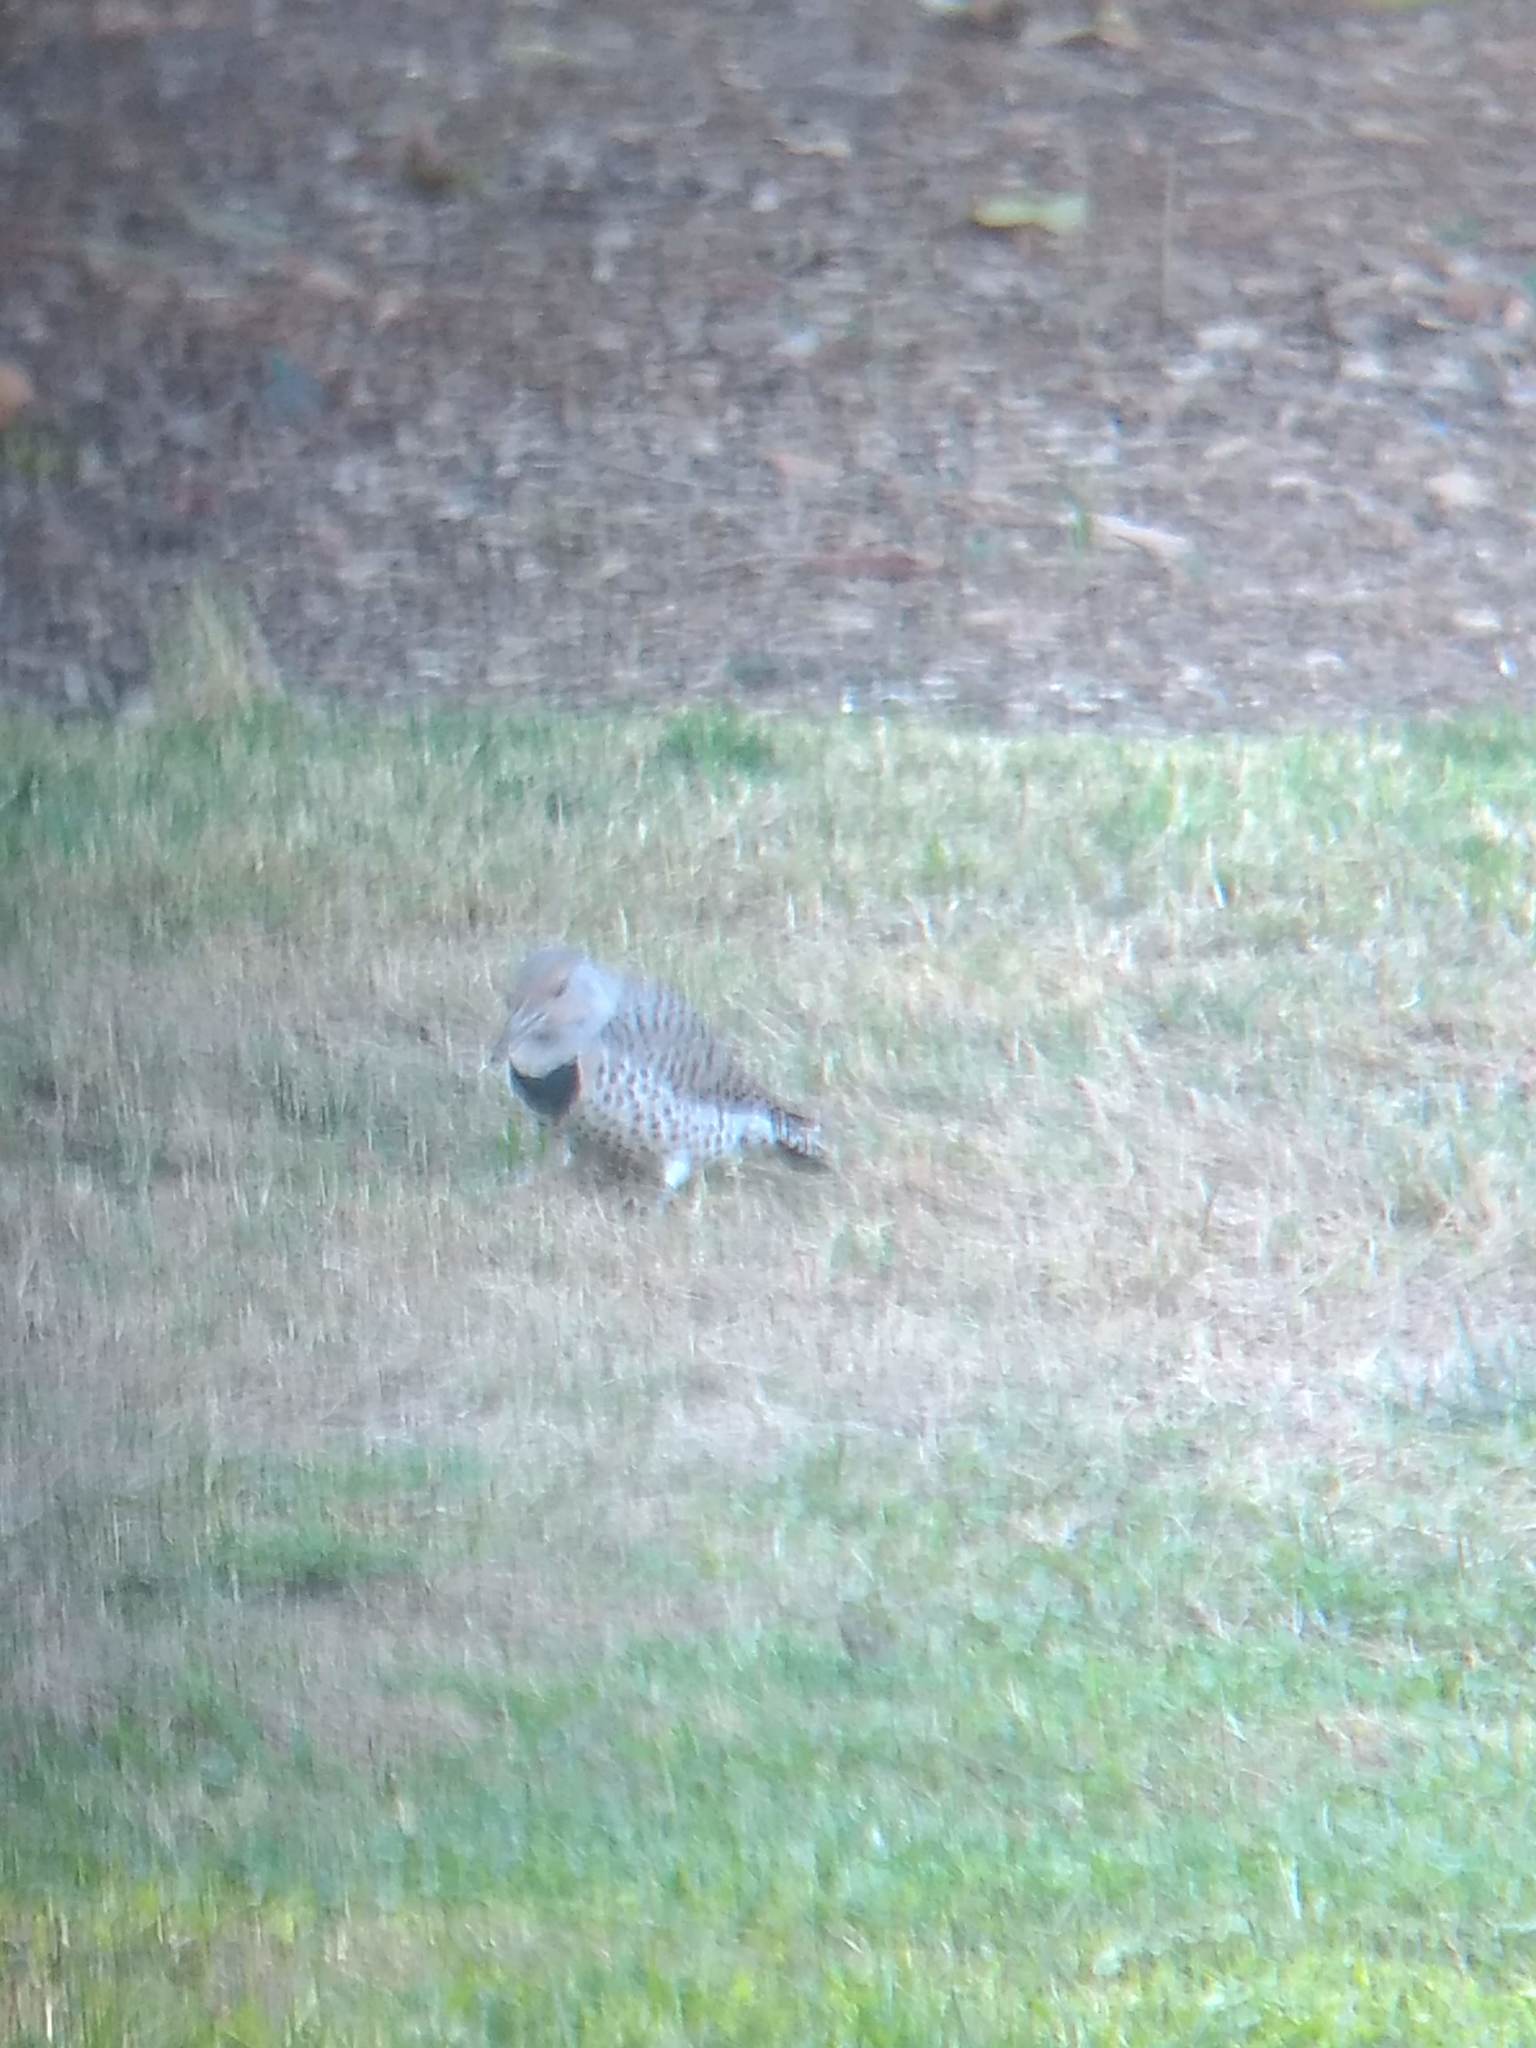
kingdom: Animalia
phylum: Chordata
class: Aves
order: Piciformes
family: Picidae
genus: Colaptes
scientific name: Colaptes auratus
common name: Northern flicker
